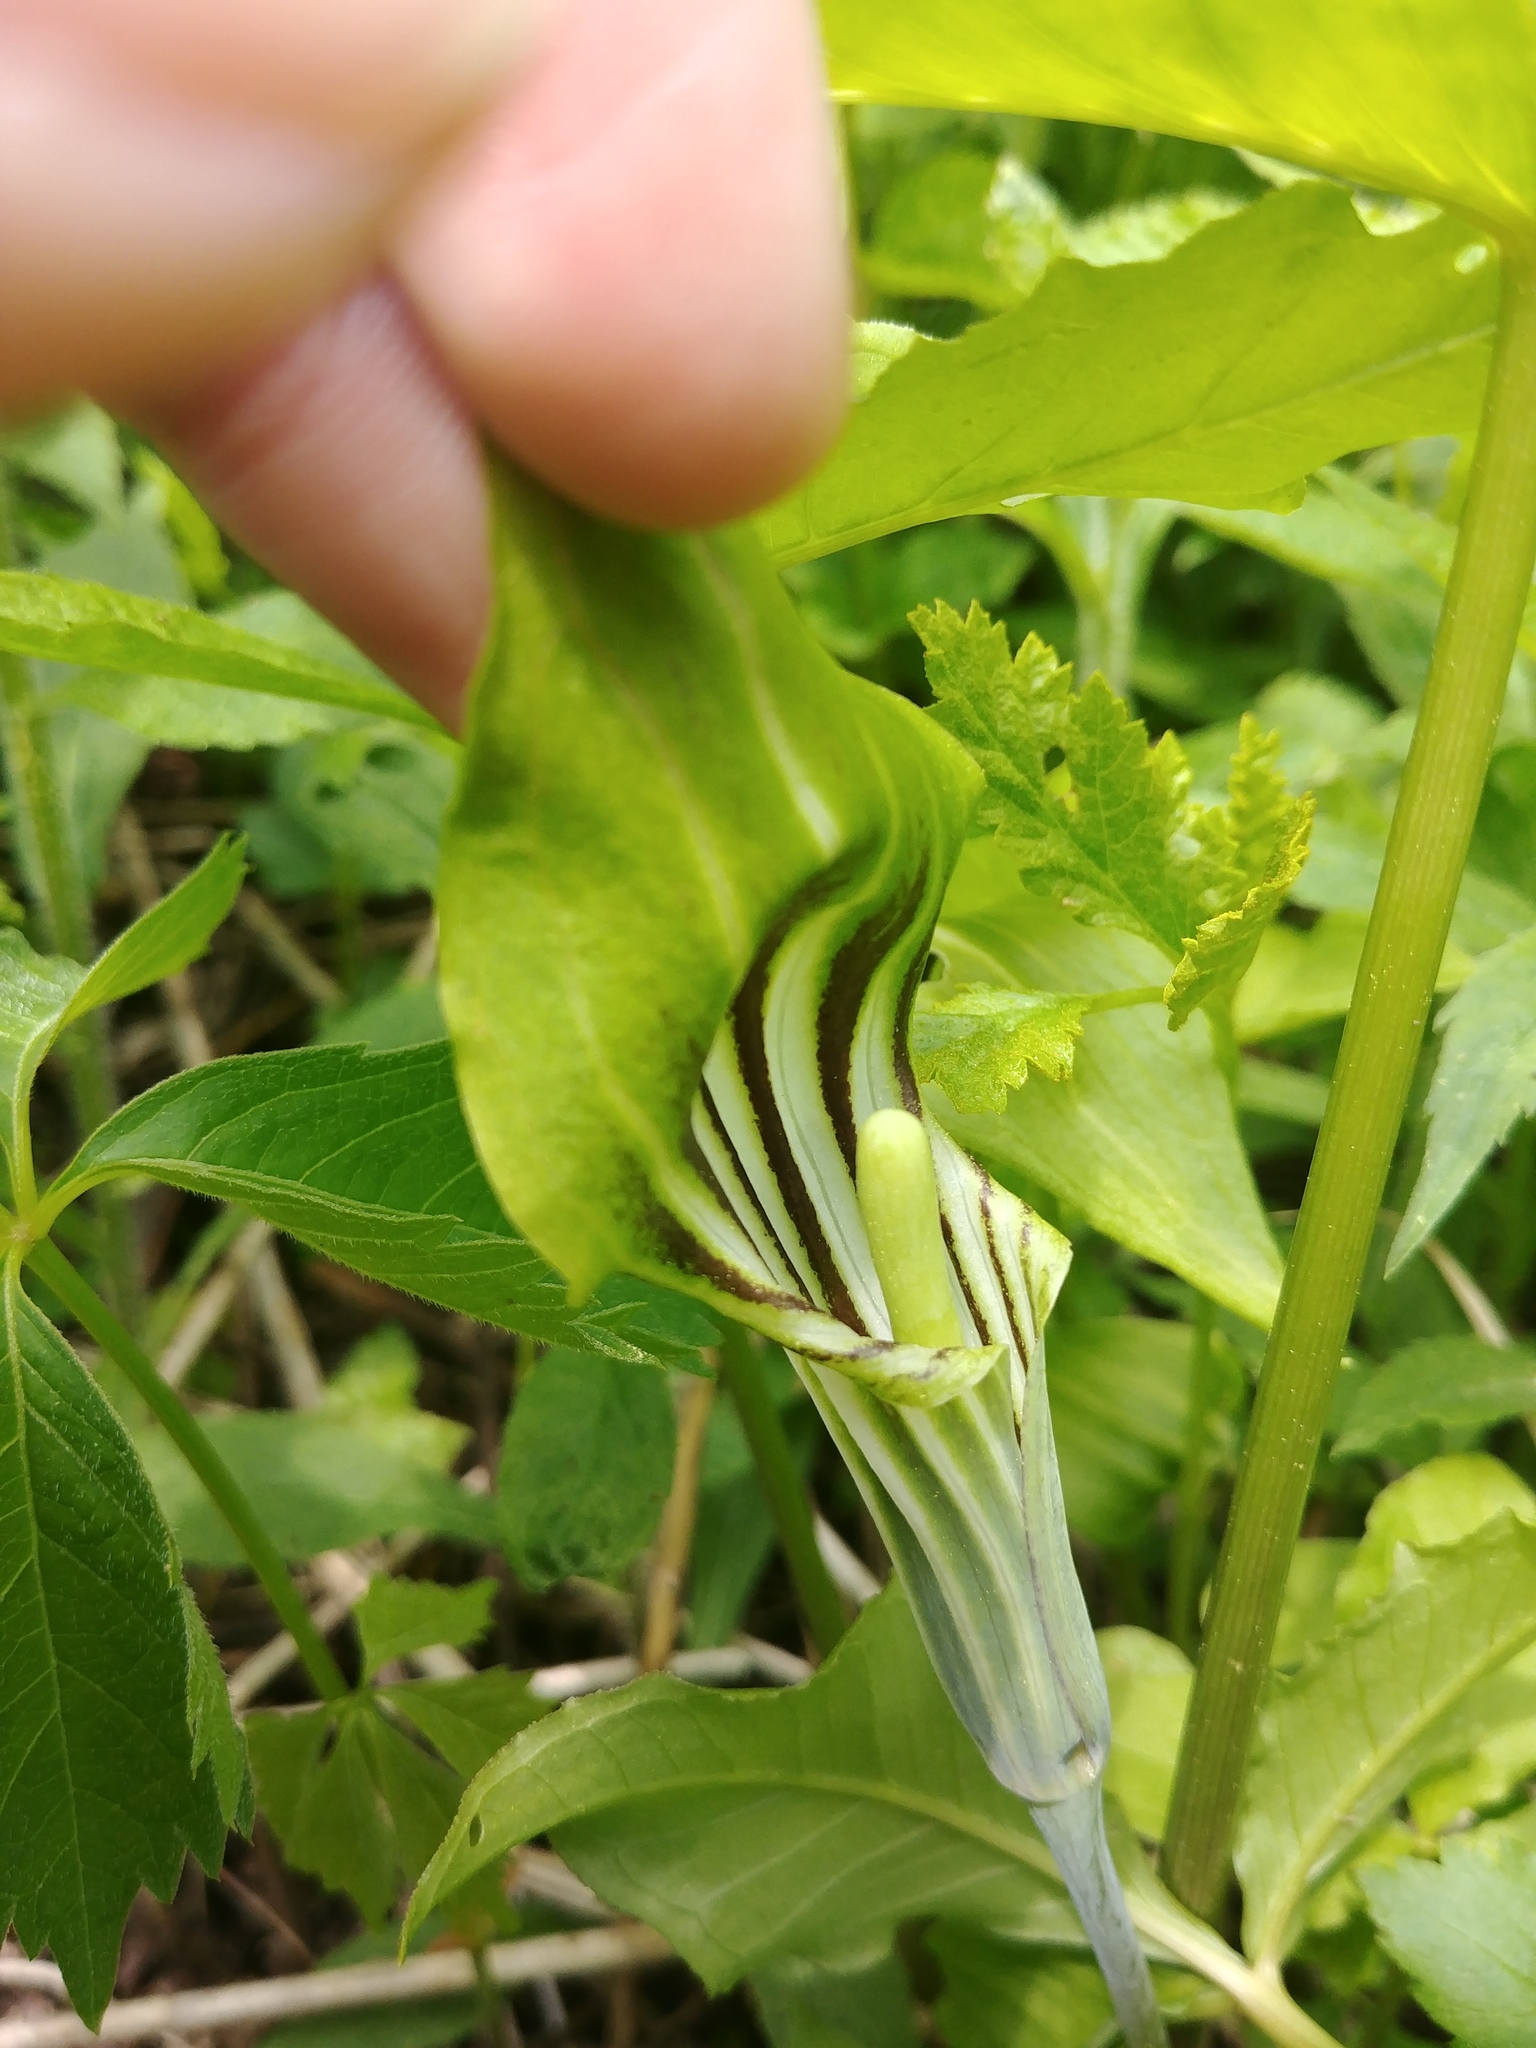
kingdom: Plantae
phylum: Tracheophyta
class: Liliopsida
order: Alismatales
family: Araceae
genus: Arisaema
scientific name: Arisaema stewardsonii
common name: Swamp jack-in-the-pulpit
